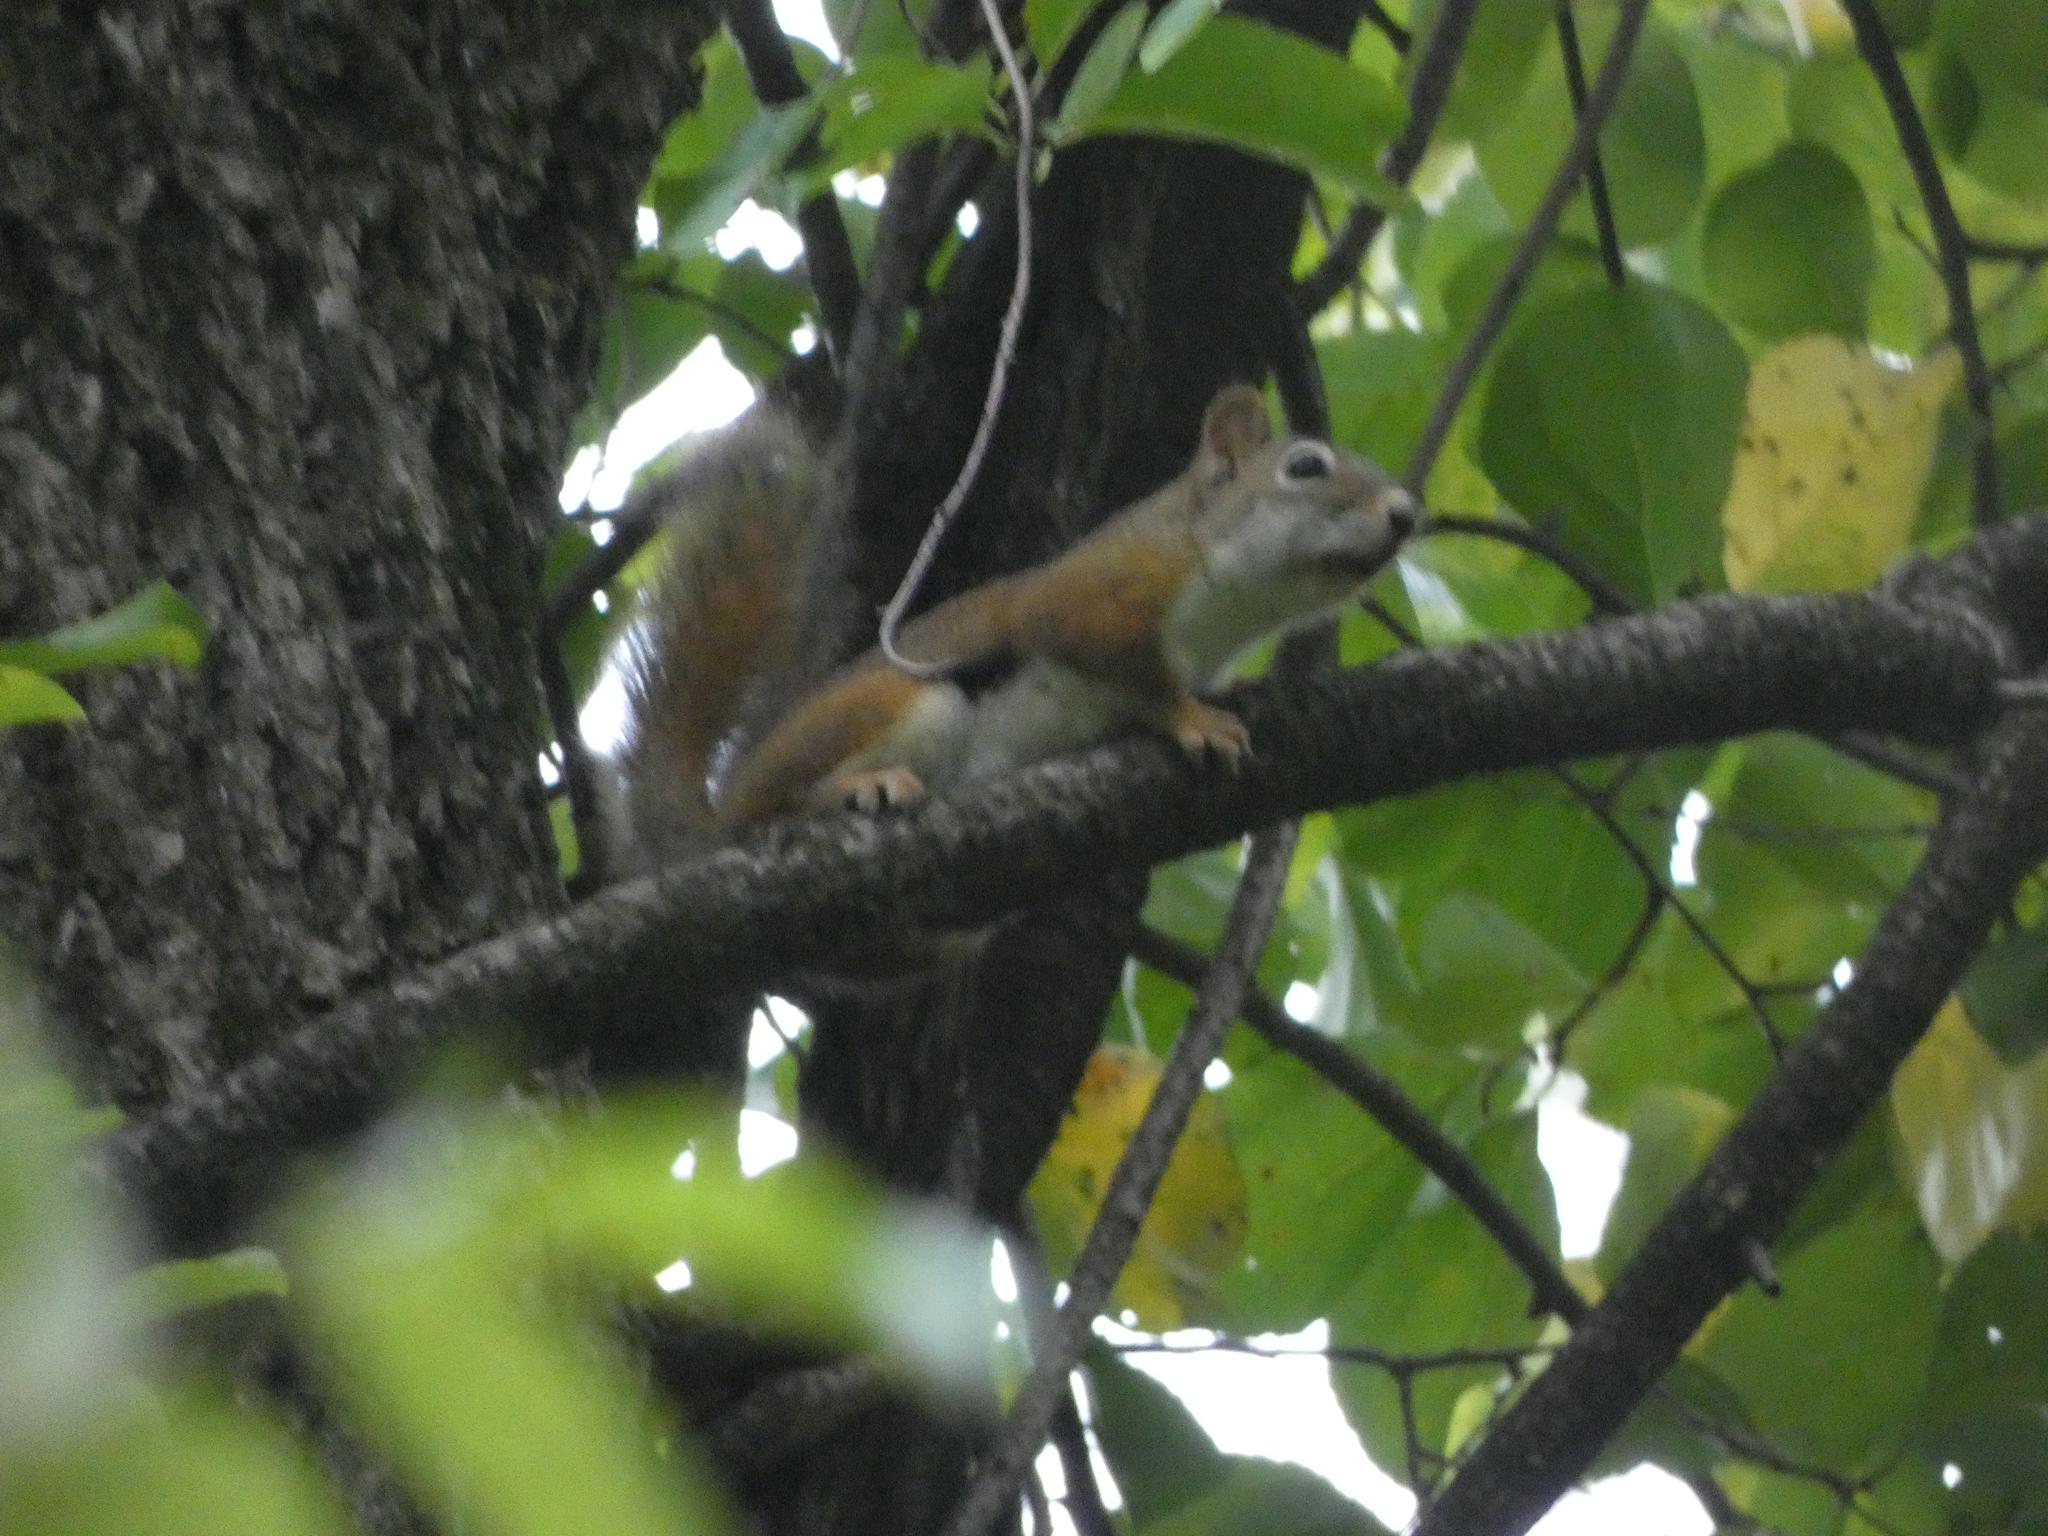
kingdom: Animalia
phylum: Chordata
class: Mammalia
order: Rodentia
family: Sciuridae
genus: Tamiasciurus
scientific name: Tamiasciurus hudsonicus
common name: Red squirrel
